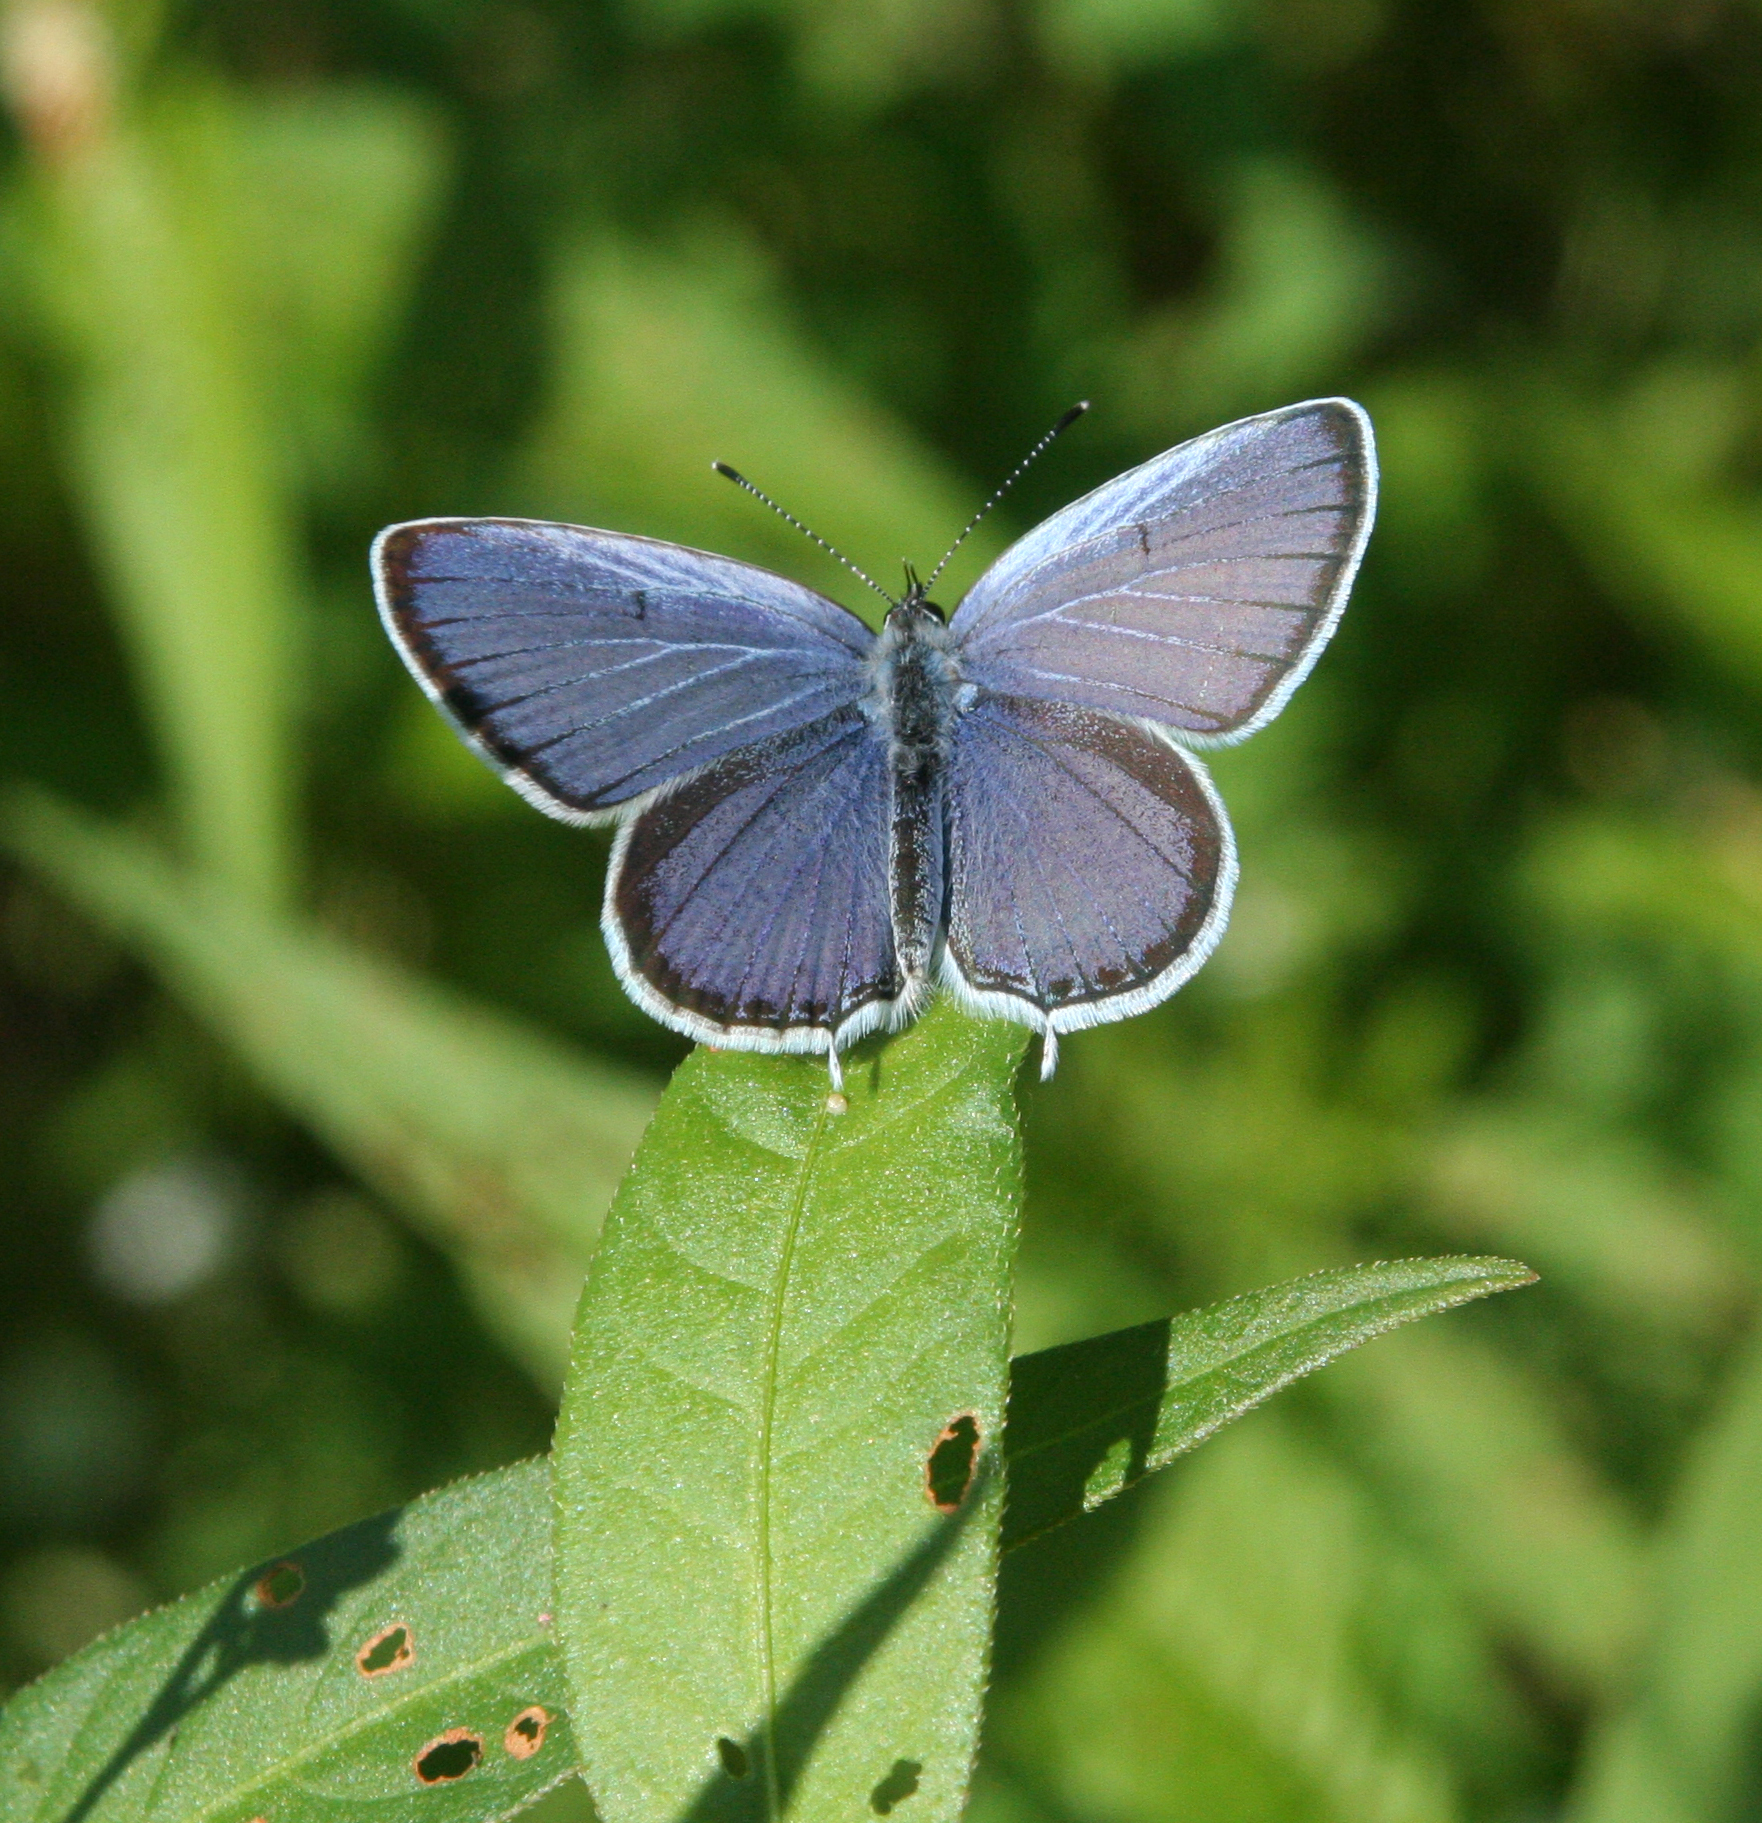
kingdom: Animalia
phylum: Arthropoda
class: Insecta
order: Lepidoptera
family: Lycaenidae
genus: Elkalyce
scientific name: Elkalyce argiades
